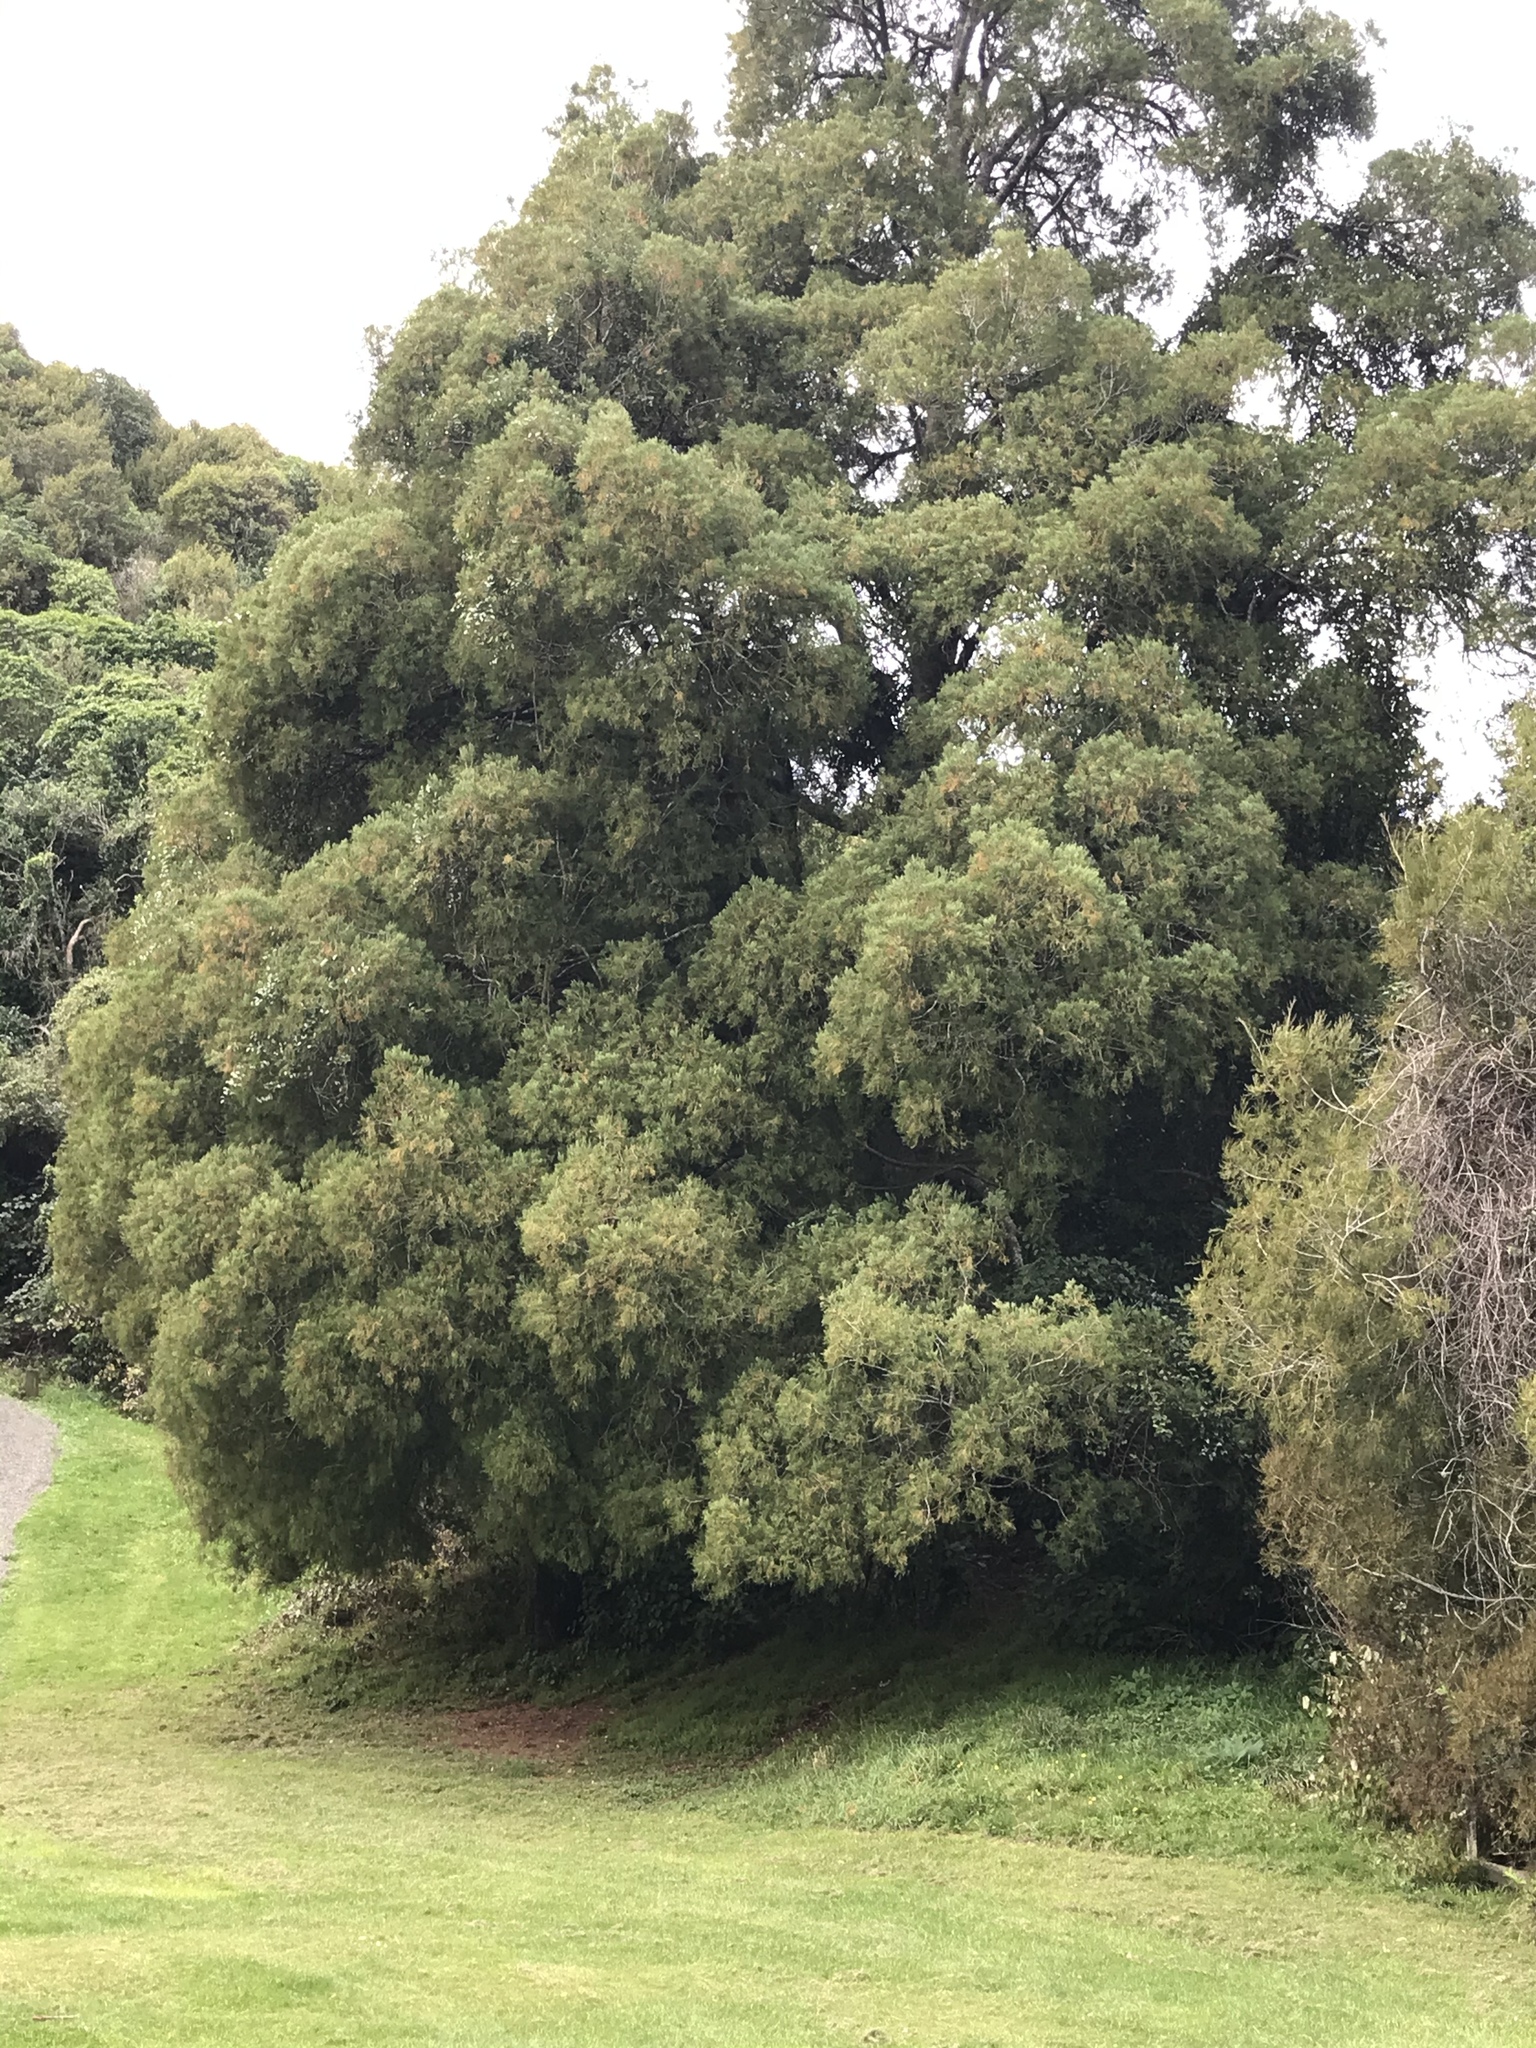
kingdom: Plantae
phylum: Tracheophyta
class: Pinopsida
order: Pinales
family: Podocarpaceae
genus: Dacrycarpus
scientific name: Dacrycarpus dacrydioides
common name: White pine
